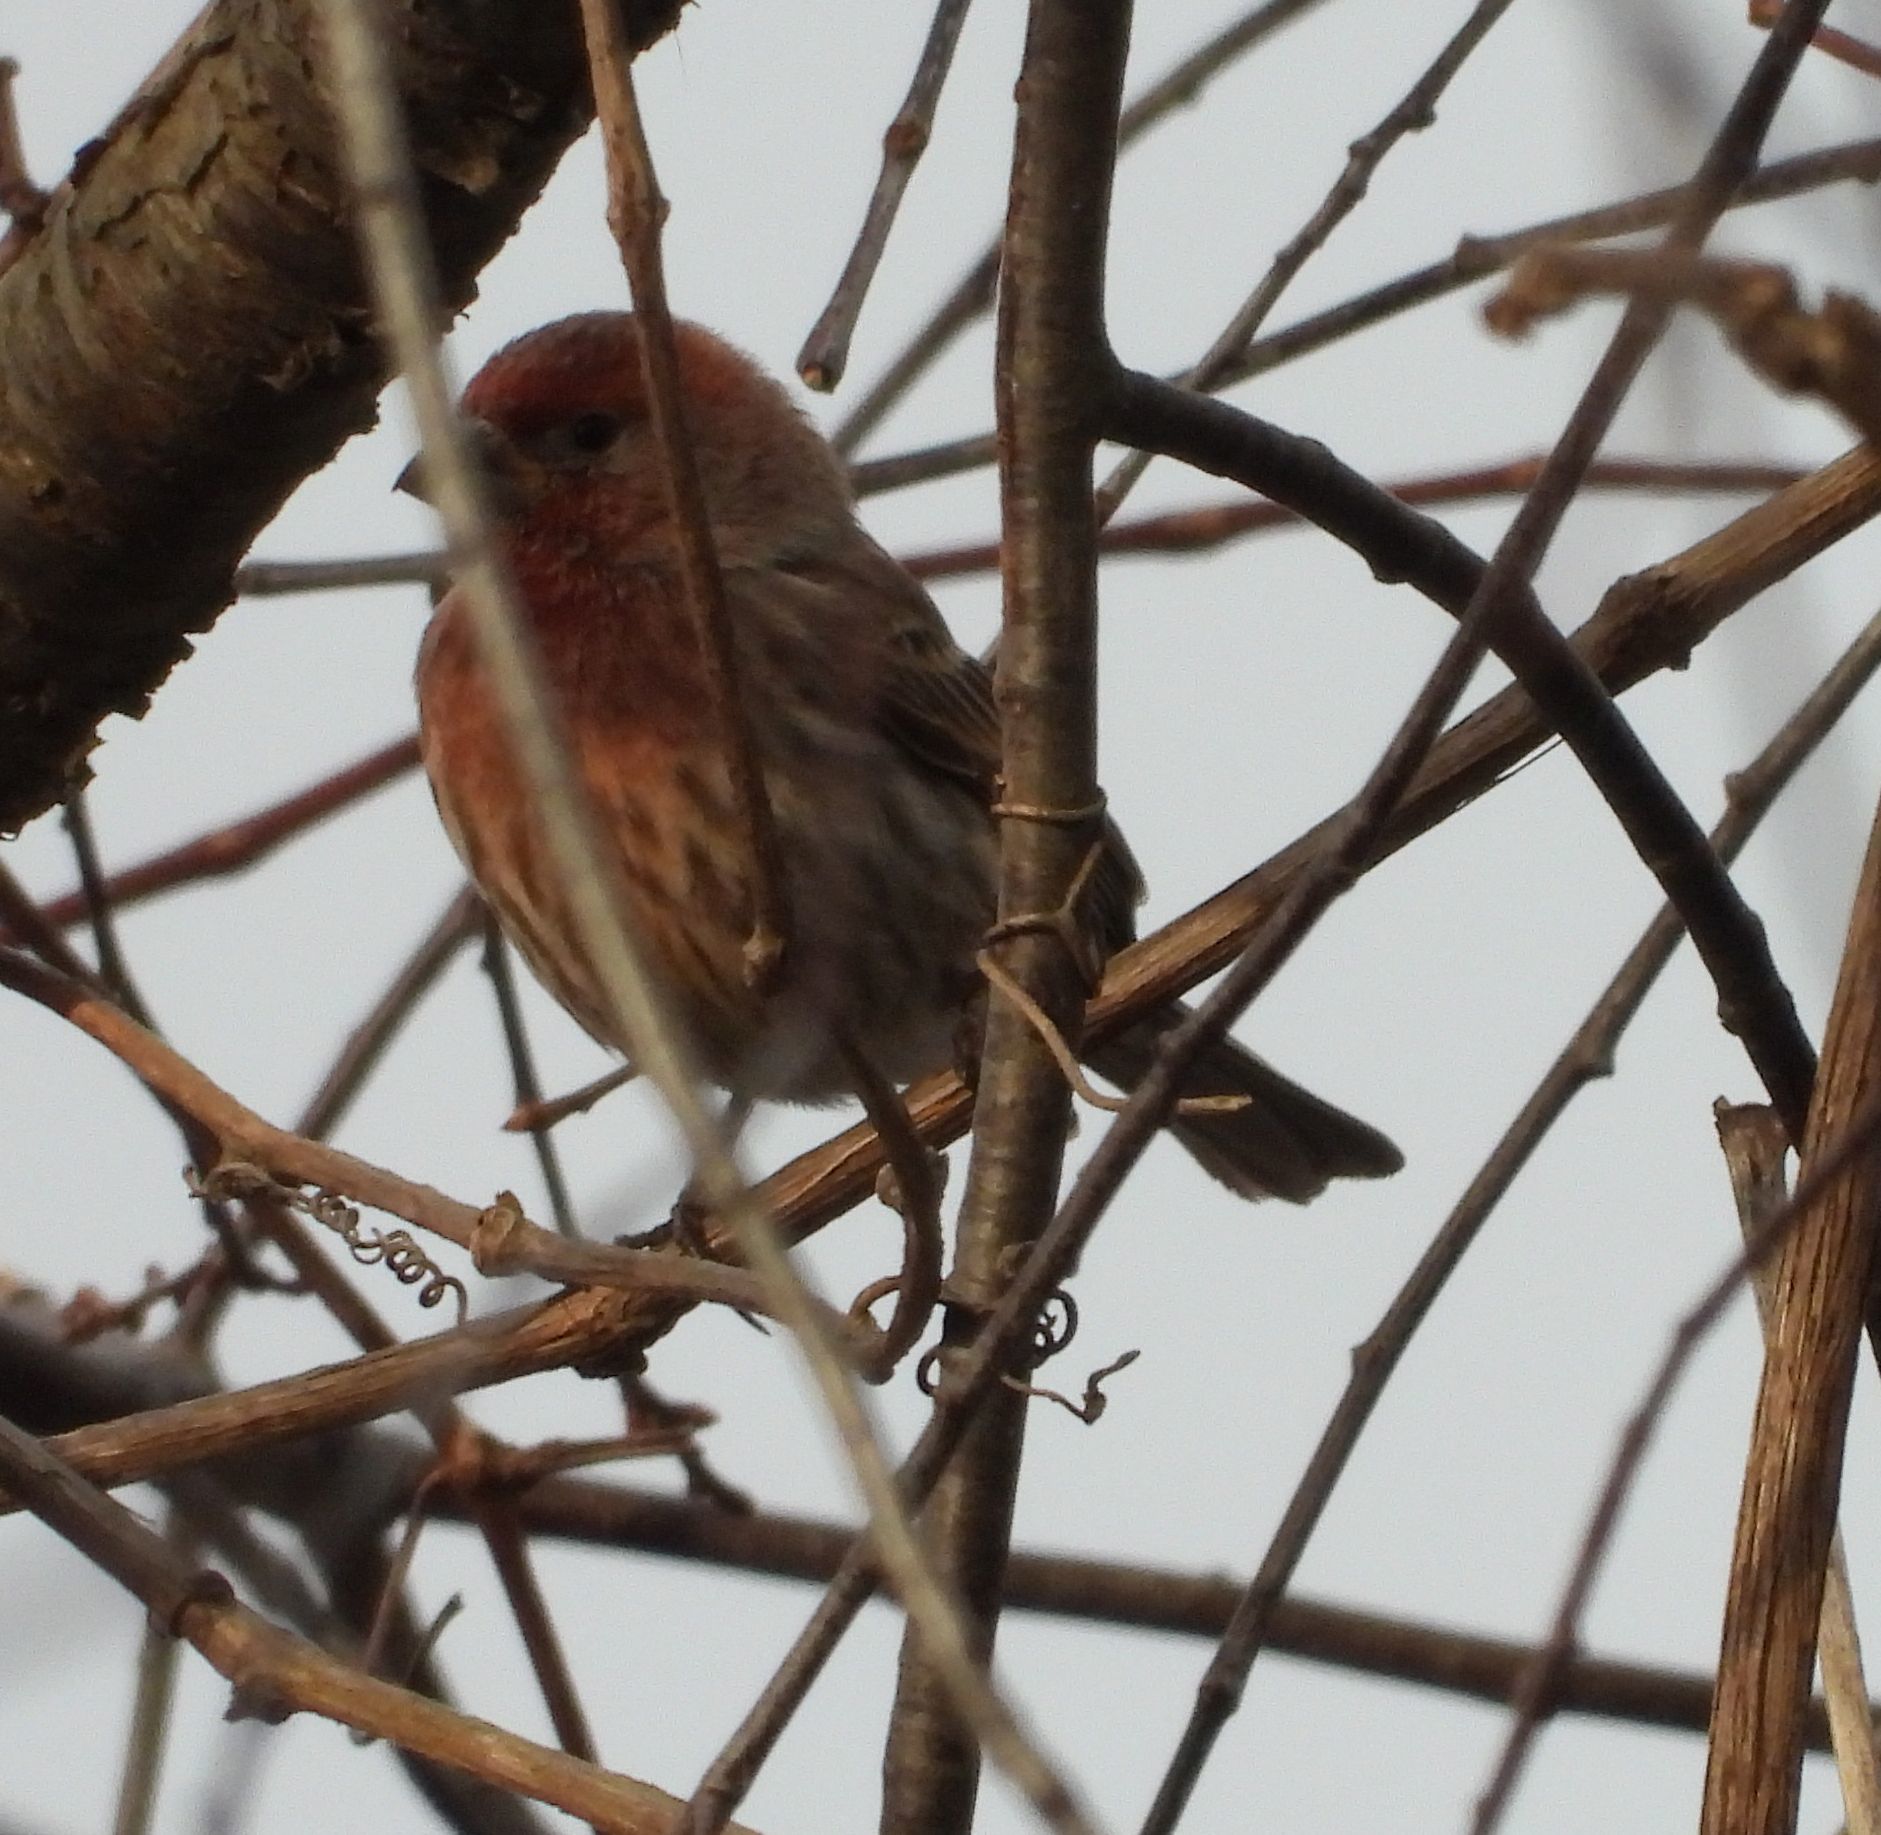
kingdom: Animalia
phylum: Chordata
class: Aves
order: Passeriformes
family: Fringillidae
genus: Haemorhous
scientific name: Haemorhous mexicanus
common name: House finch
